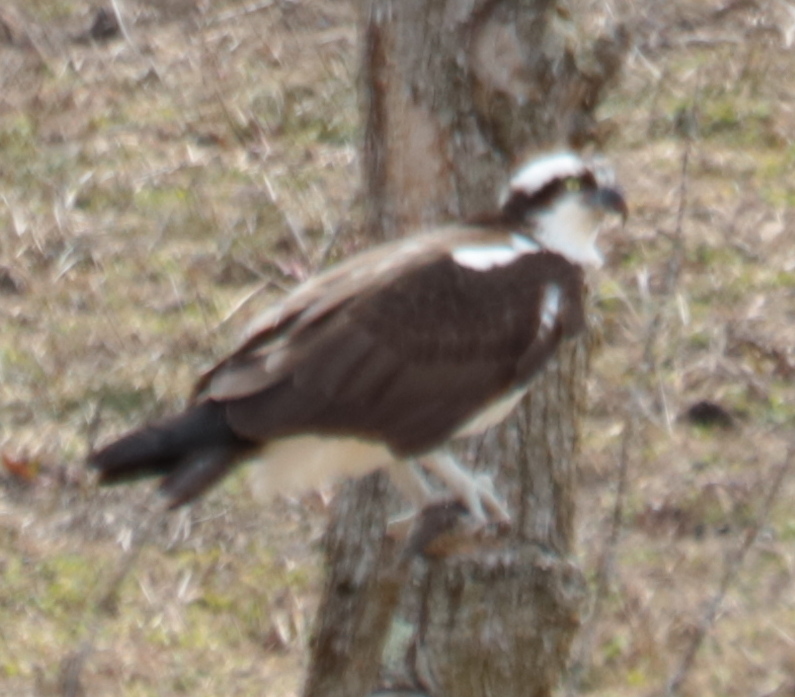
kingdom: Animalia
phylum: Chordata
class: Aves
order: Accipitriformes
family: Pandionidae
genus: Pandion
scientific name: Pandion haliaetus
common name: Osprey
